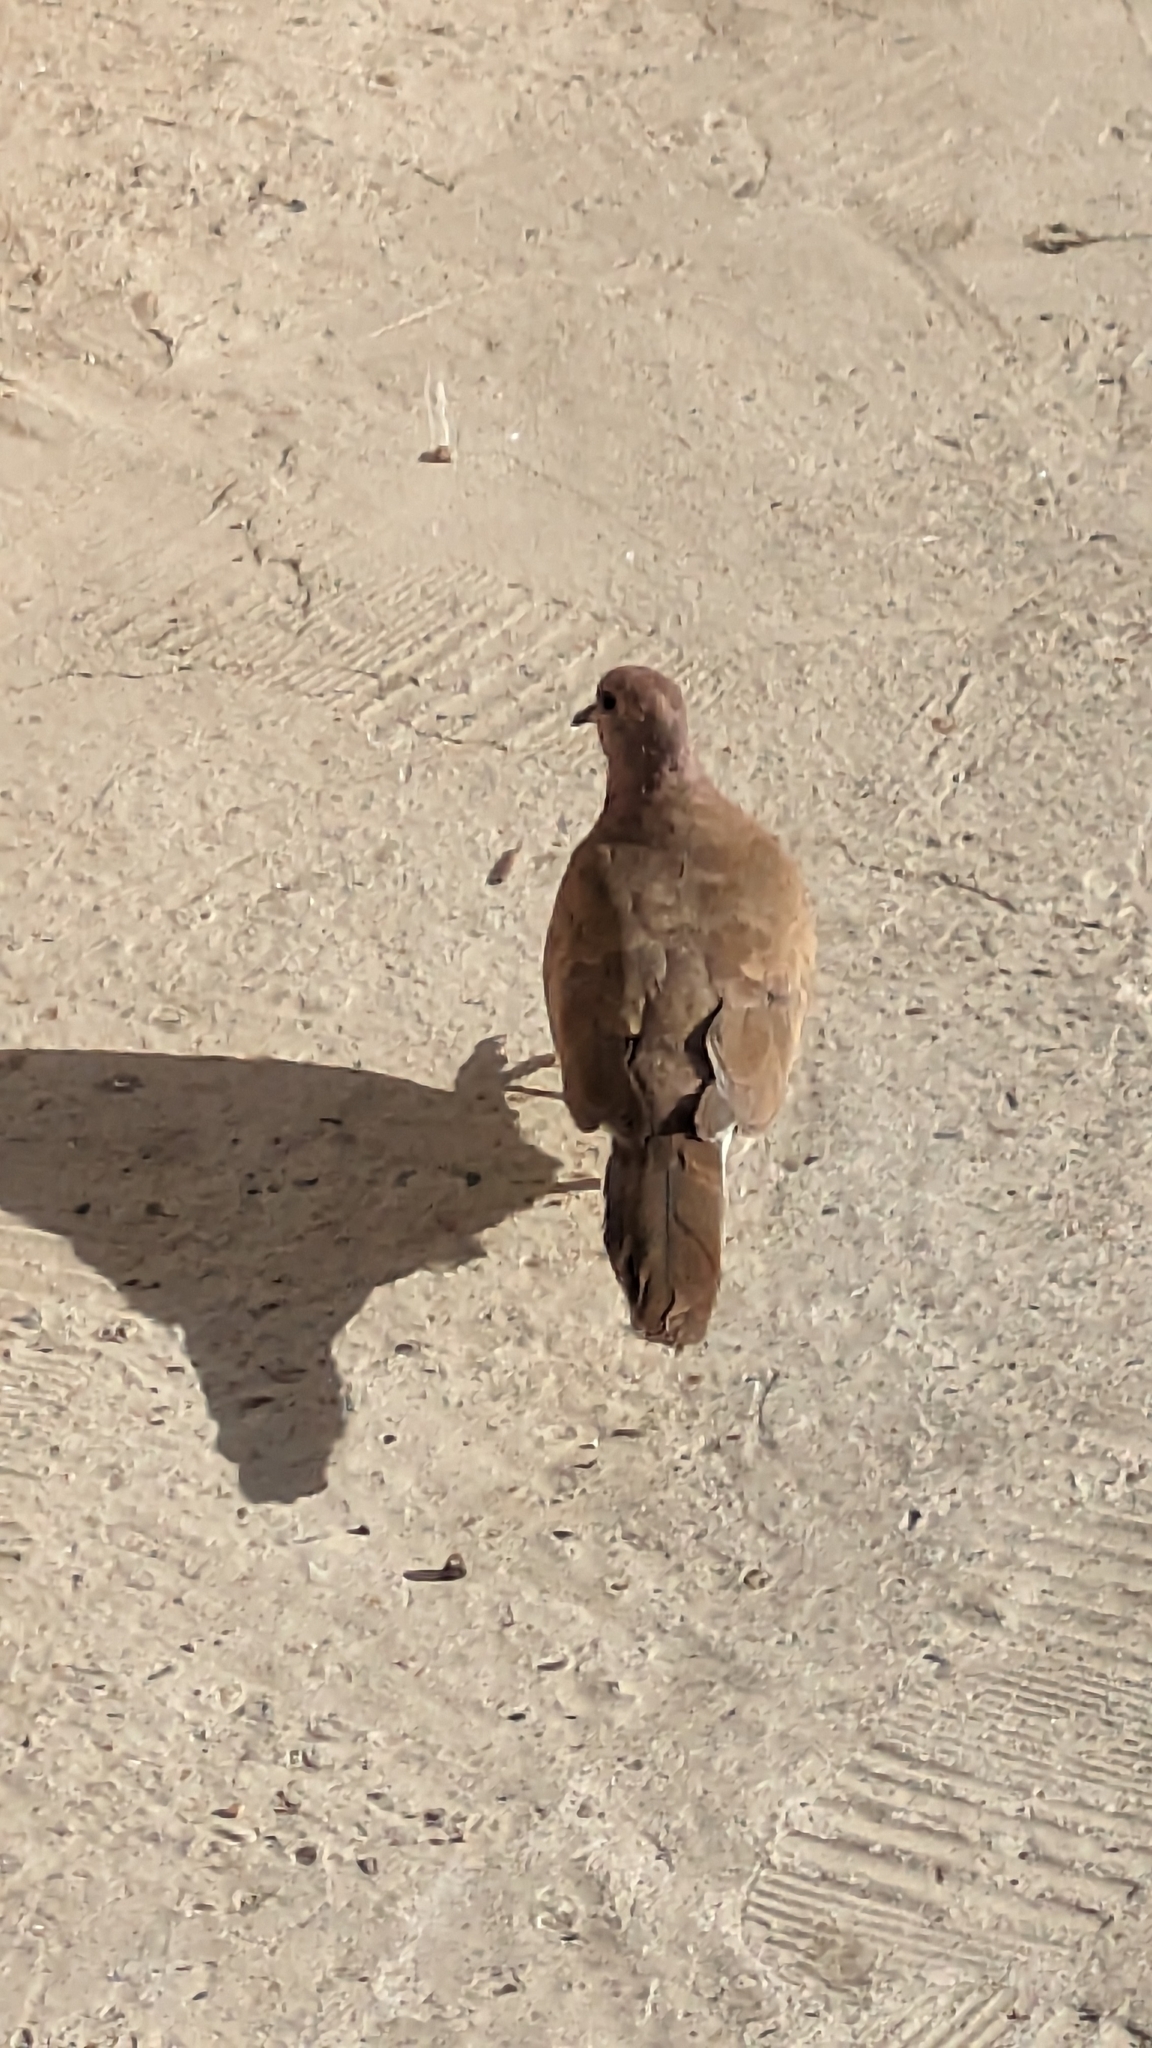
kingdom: Animalia
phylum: Chordata
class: Aves
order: Columbiformes
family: Columbidae
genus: Spilopelia
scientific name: Spilopelia senegalensis
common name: Laughing dove
